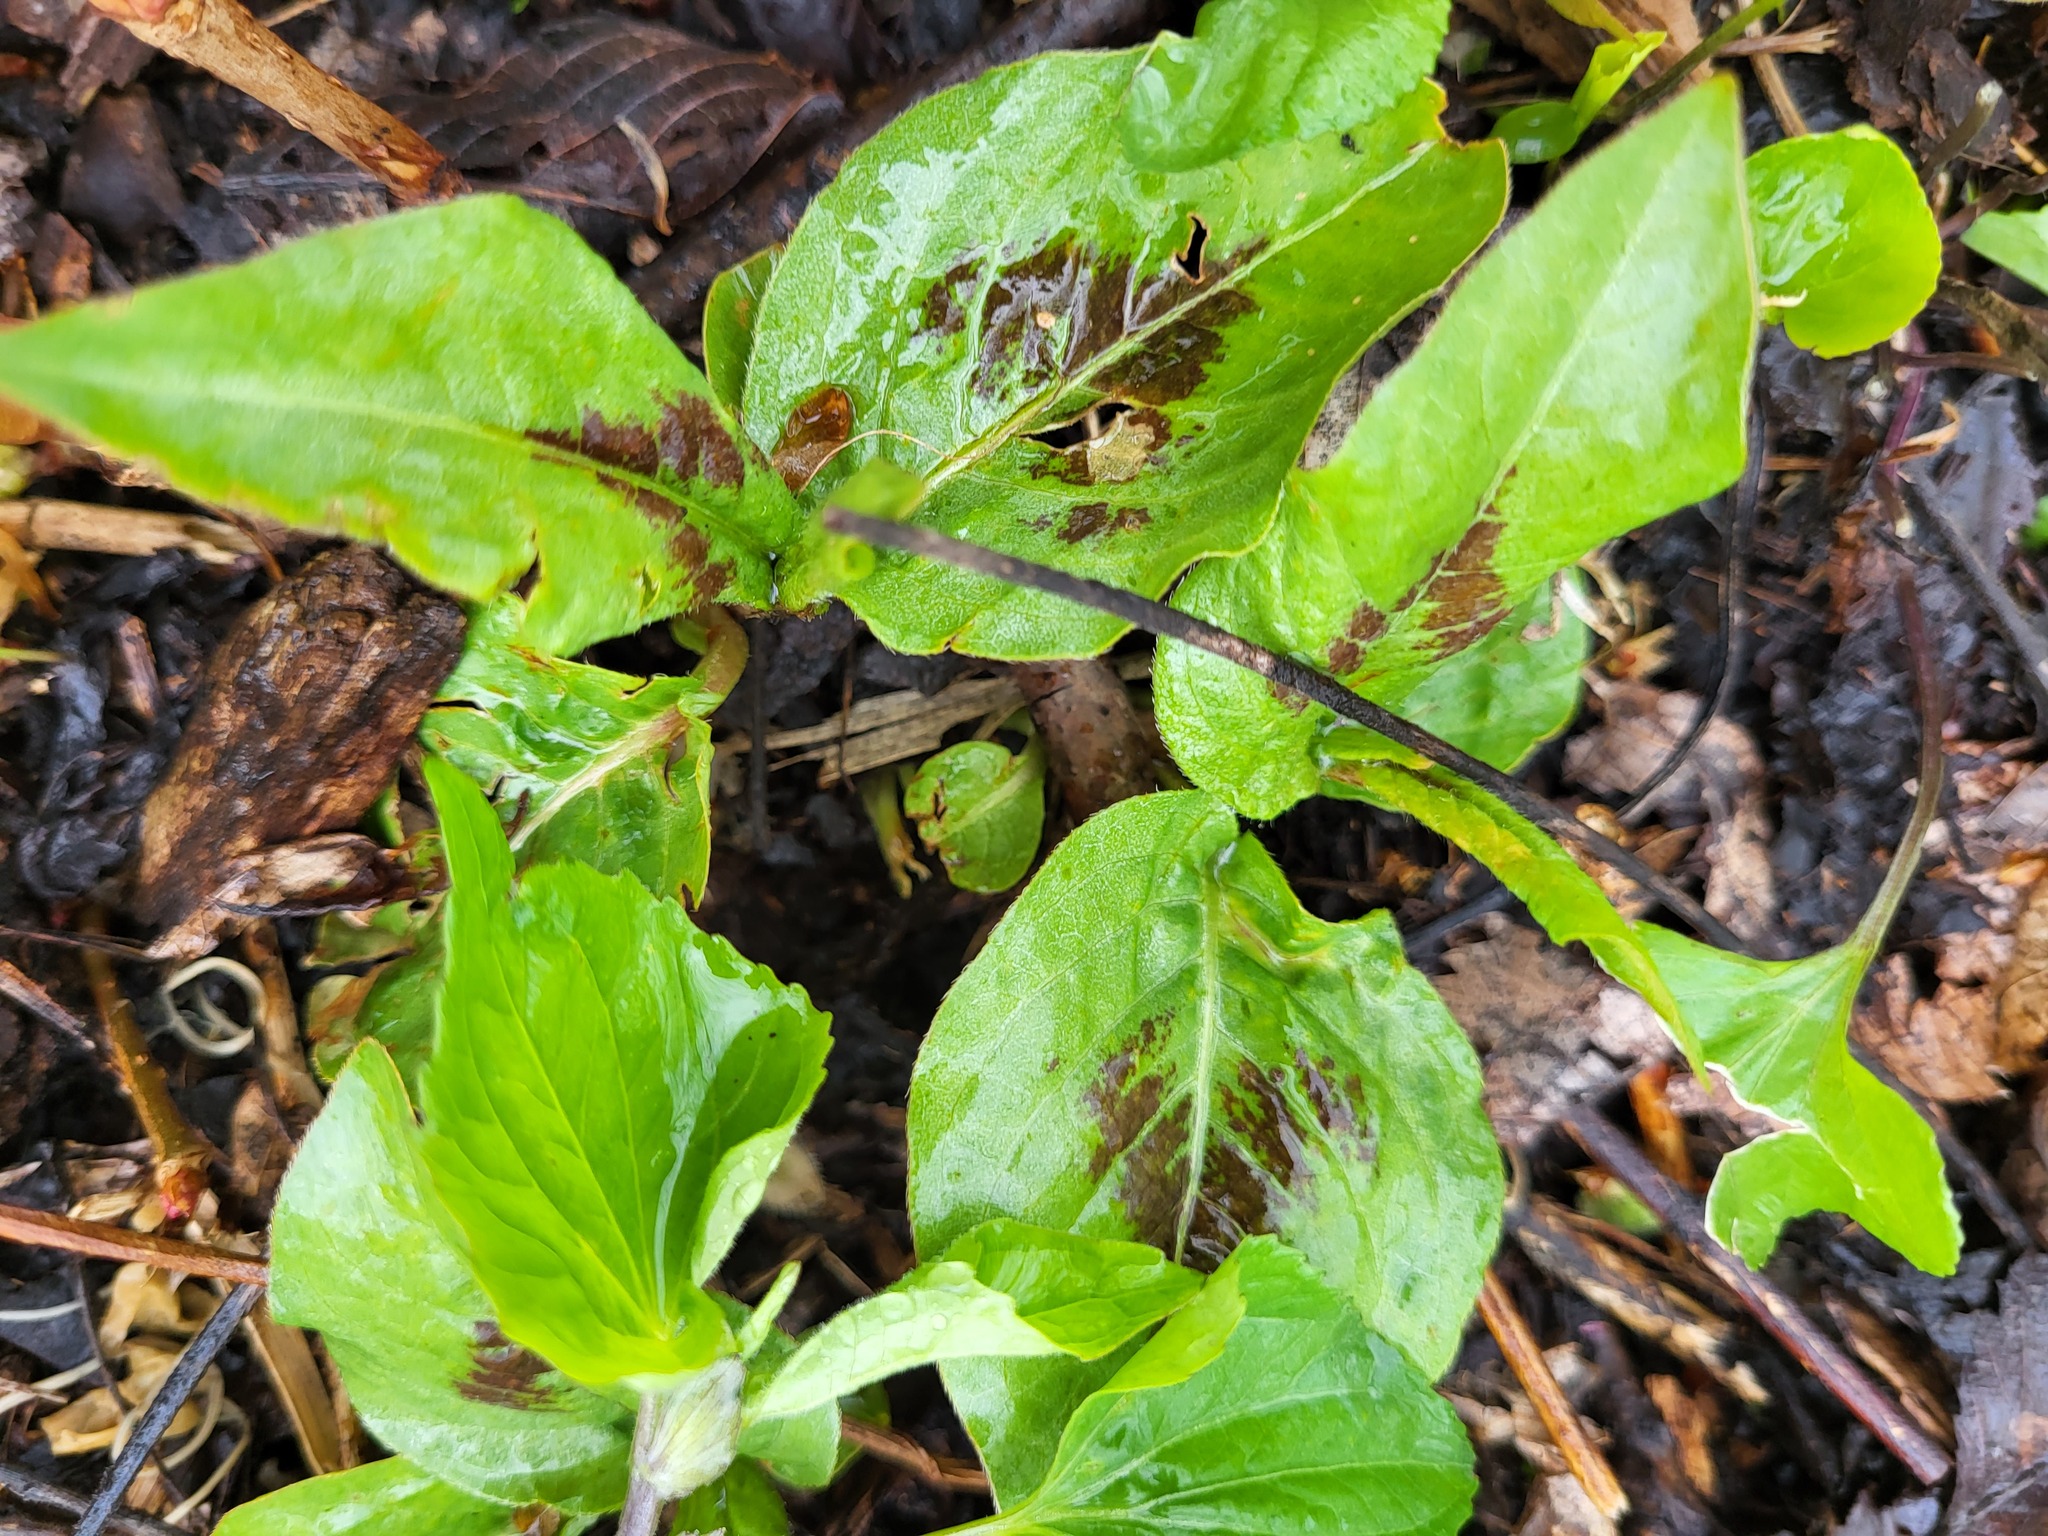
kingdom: Plantae
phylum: Tracheophyta
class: Magnoliopsida
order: Caryophyllales
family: Polygonaceae
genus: Persicaria
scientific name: Persicaria virginiana
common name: Jumpseed
